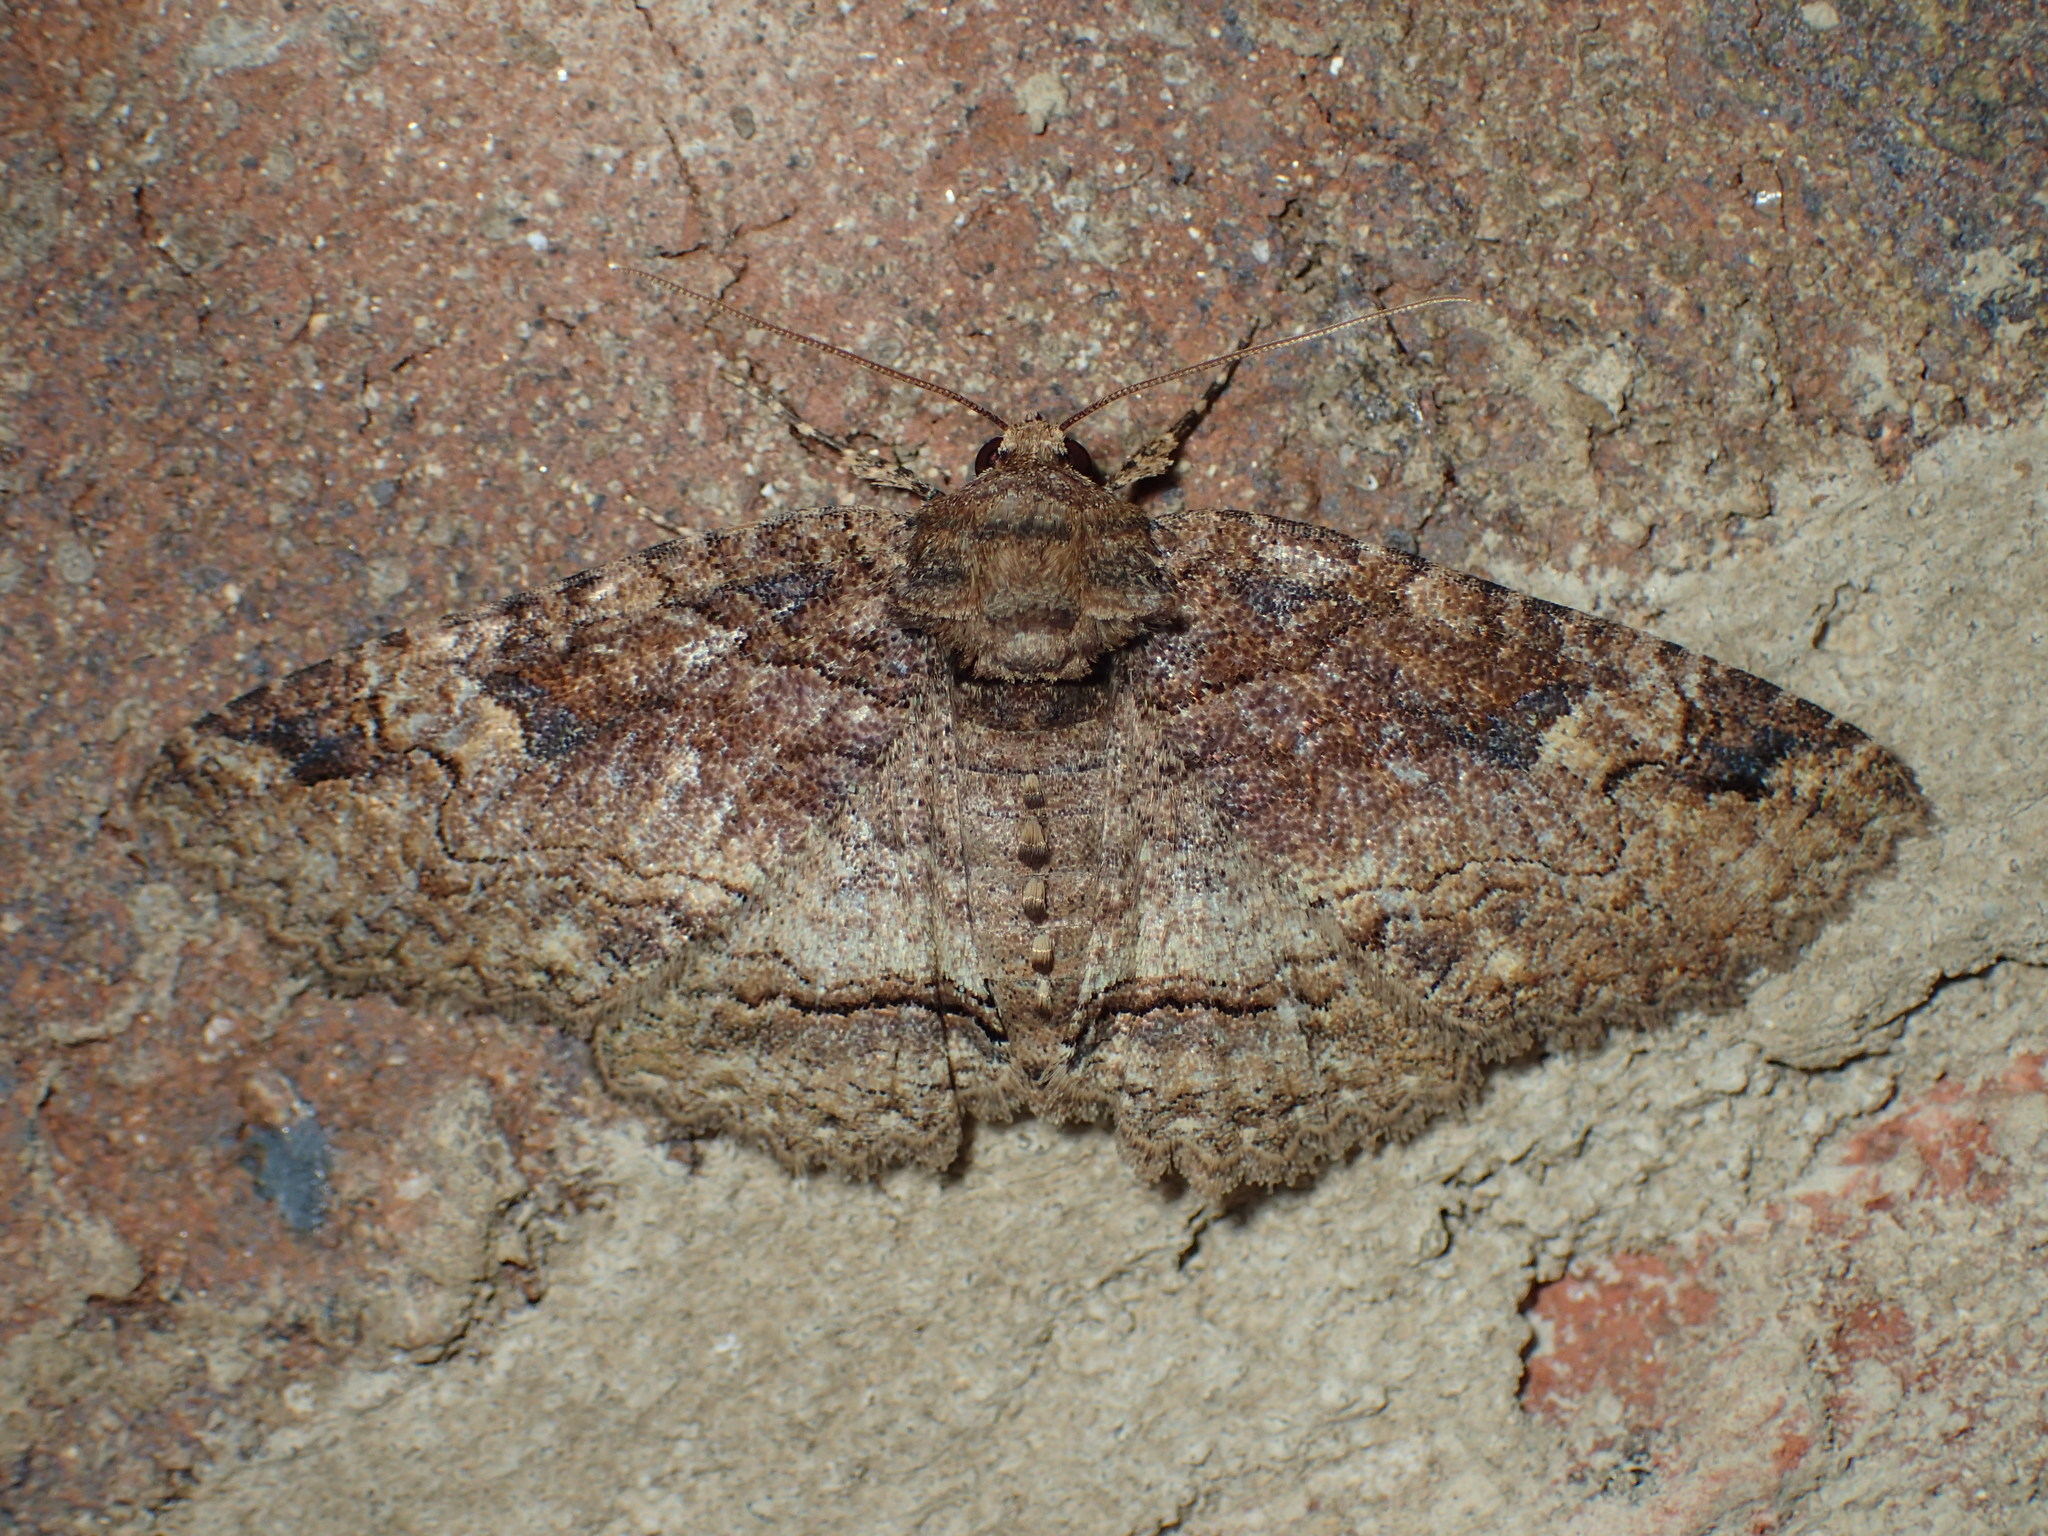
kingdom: Animalia
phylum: Arthropoda
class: Insecta
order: Lepidoptera
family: Erebidae
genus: Zale
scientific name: Zale phaeocapna
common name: Hazel zale moth
